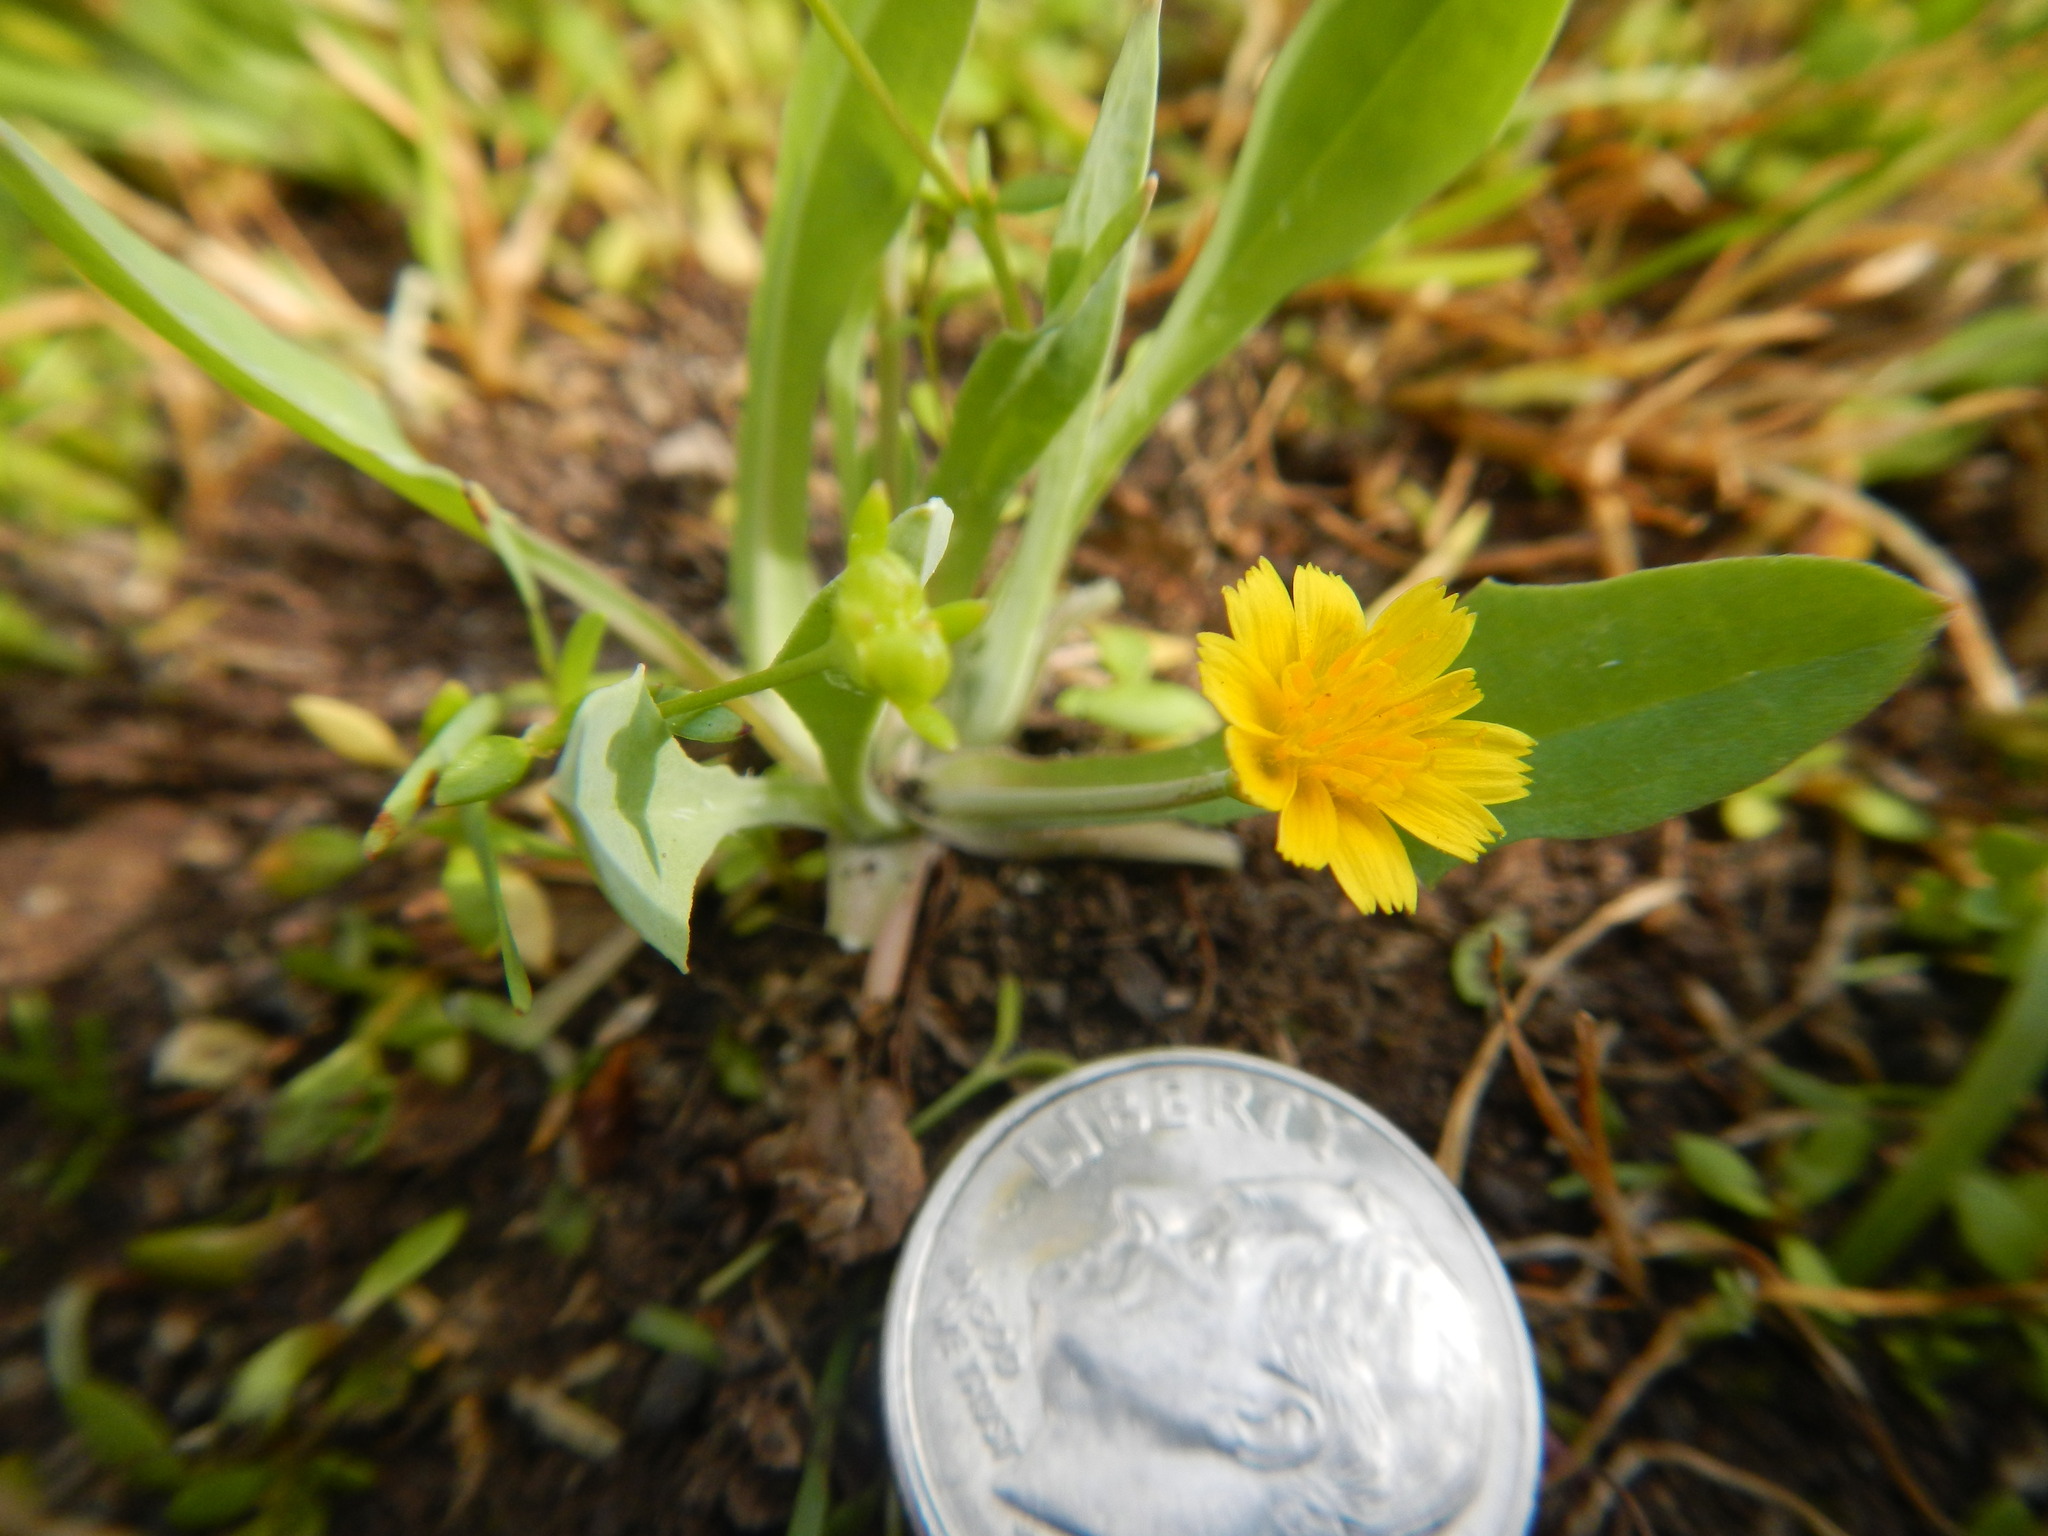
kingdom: Plantae
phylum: Tracheophyta
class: Magnoliopsida
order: Asterales
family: Asteraceae
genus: Krigia
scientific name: Krigia
